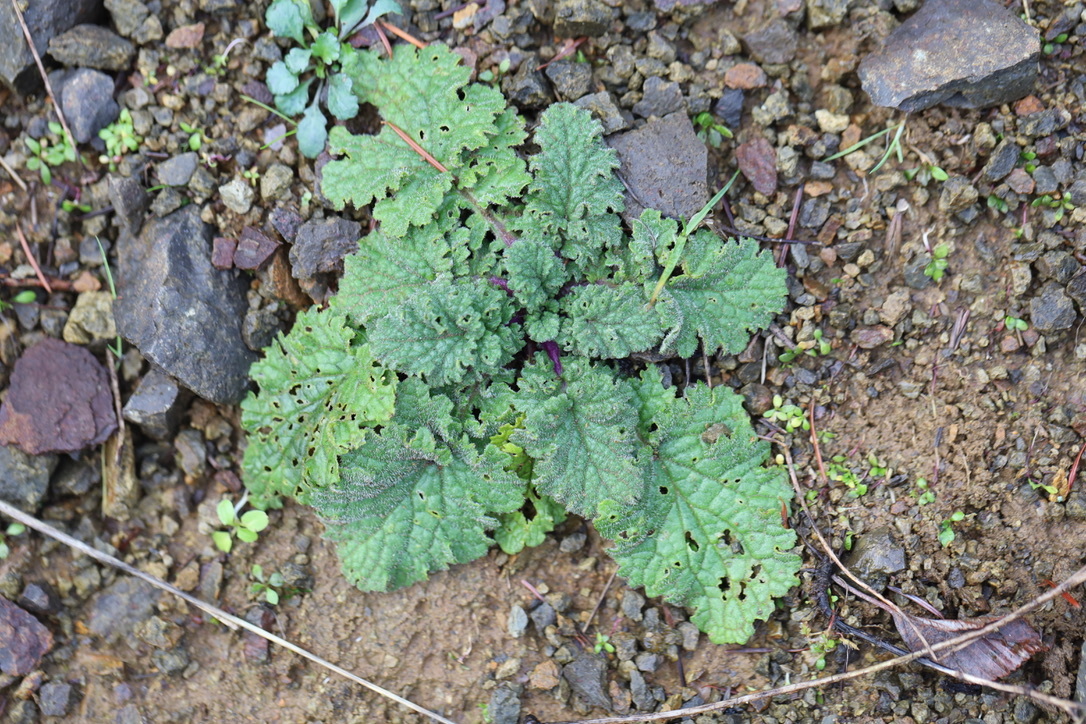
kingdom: Plantae
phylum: Tracheophyta
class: Magnoliopsida
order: Asterales
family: Asteraceae
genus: Jacobaea
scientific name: Jacobaea vulgaris
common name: Stinking willie
